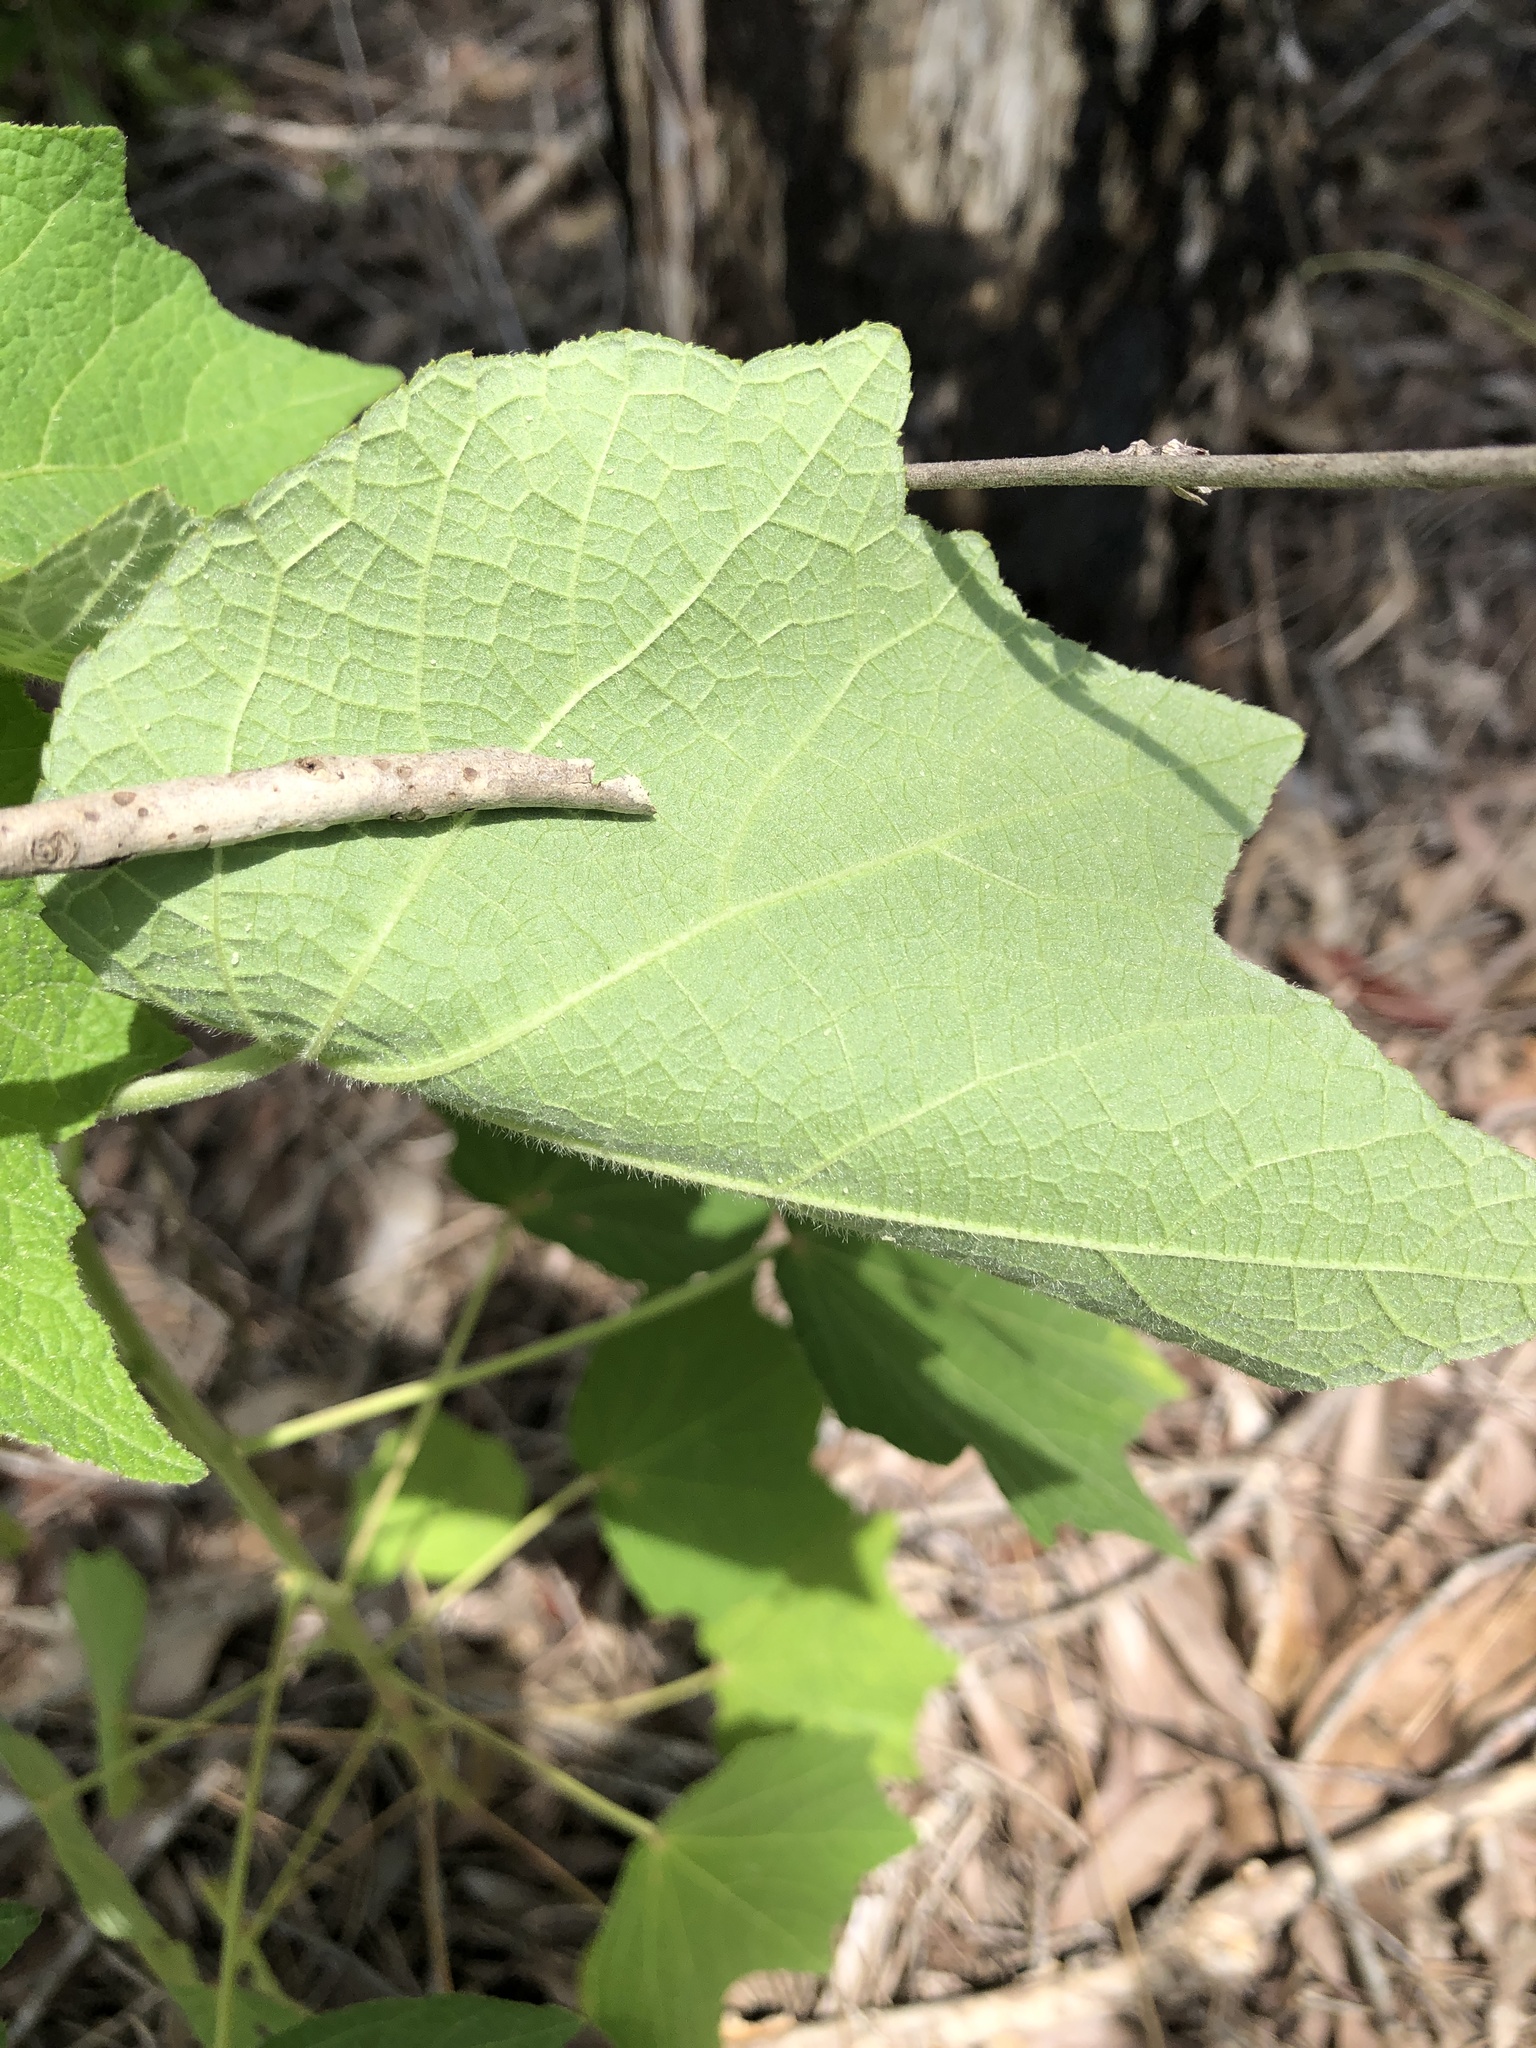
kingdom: Plantae
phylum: Tracheophyta
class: Magnoliopsida
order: Malvales
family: Malvaceae
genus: Urena
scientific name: Urena lobata
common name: Caesarweed
